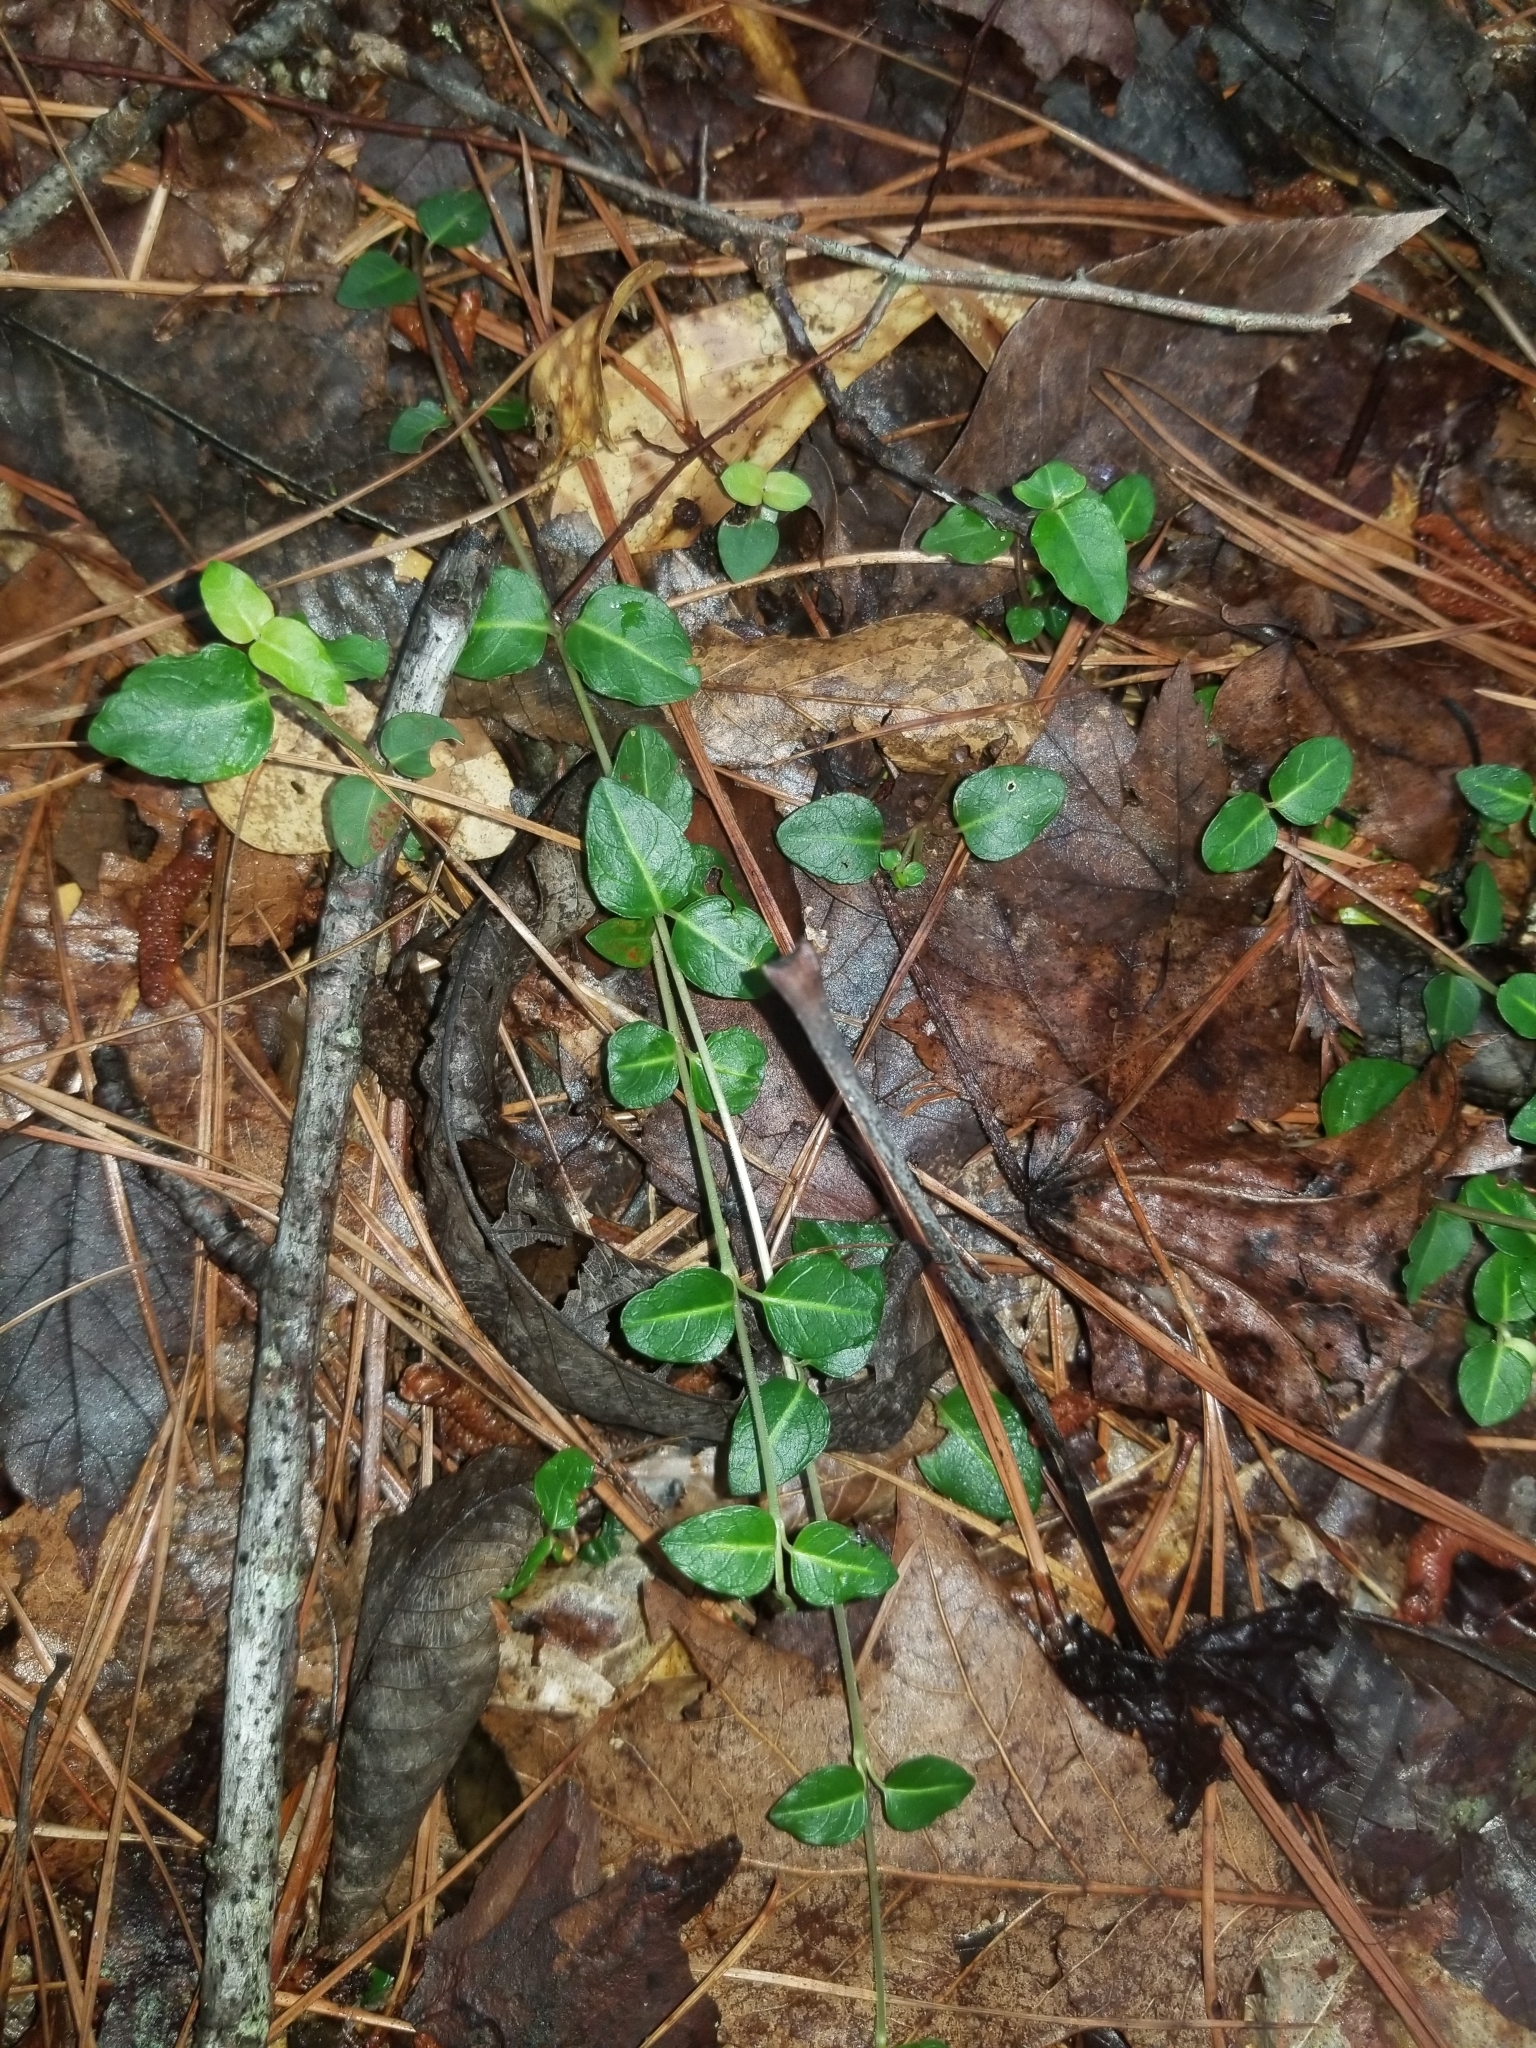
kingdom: Plantae
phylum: Tracheophyta
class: Magnoliopsida
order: Gentianales
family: Rubiaceae
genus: Mitchella
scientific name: Mitchella repens
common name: Partridge-berry
